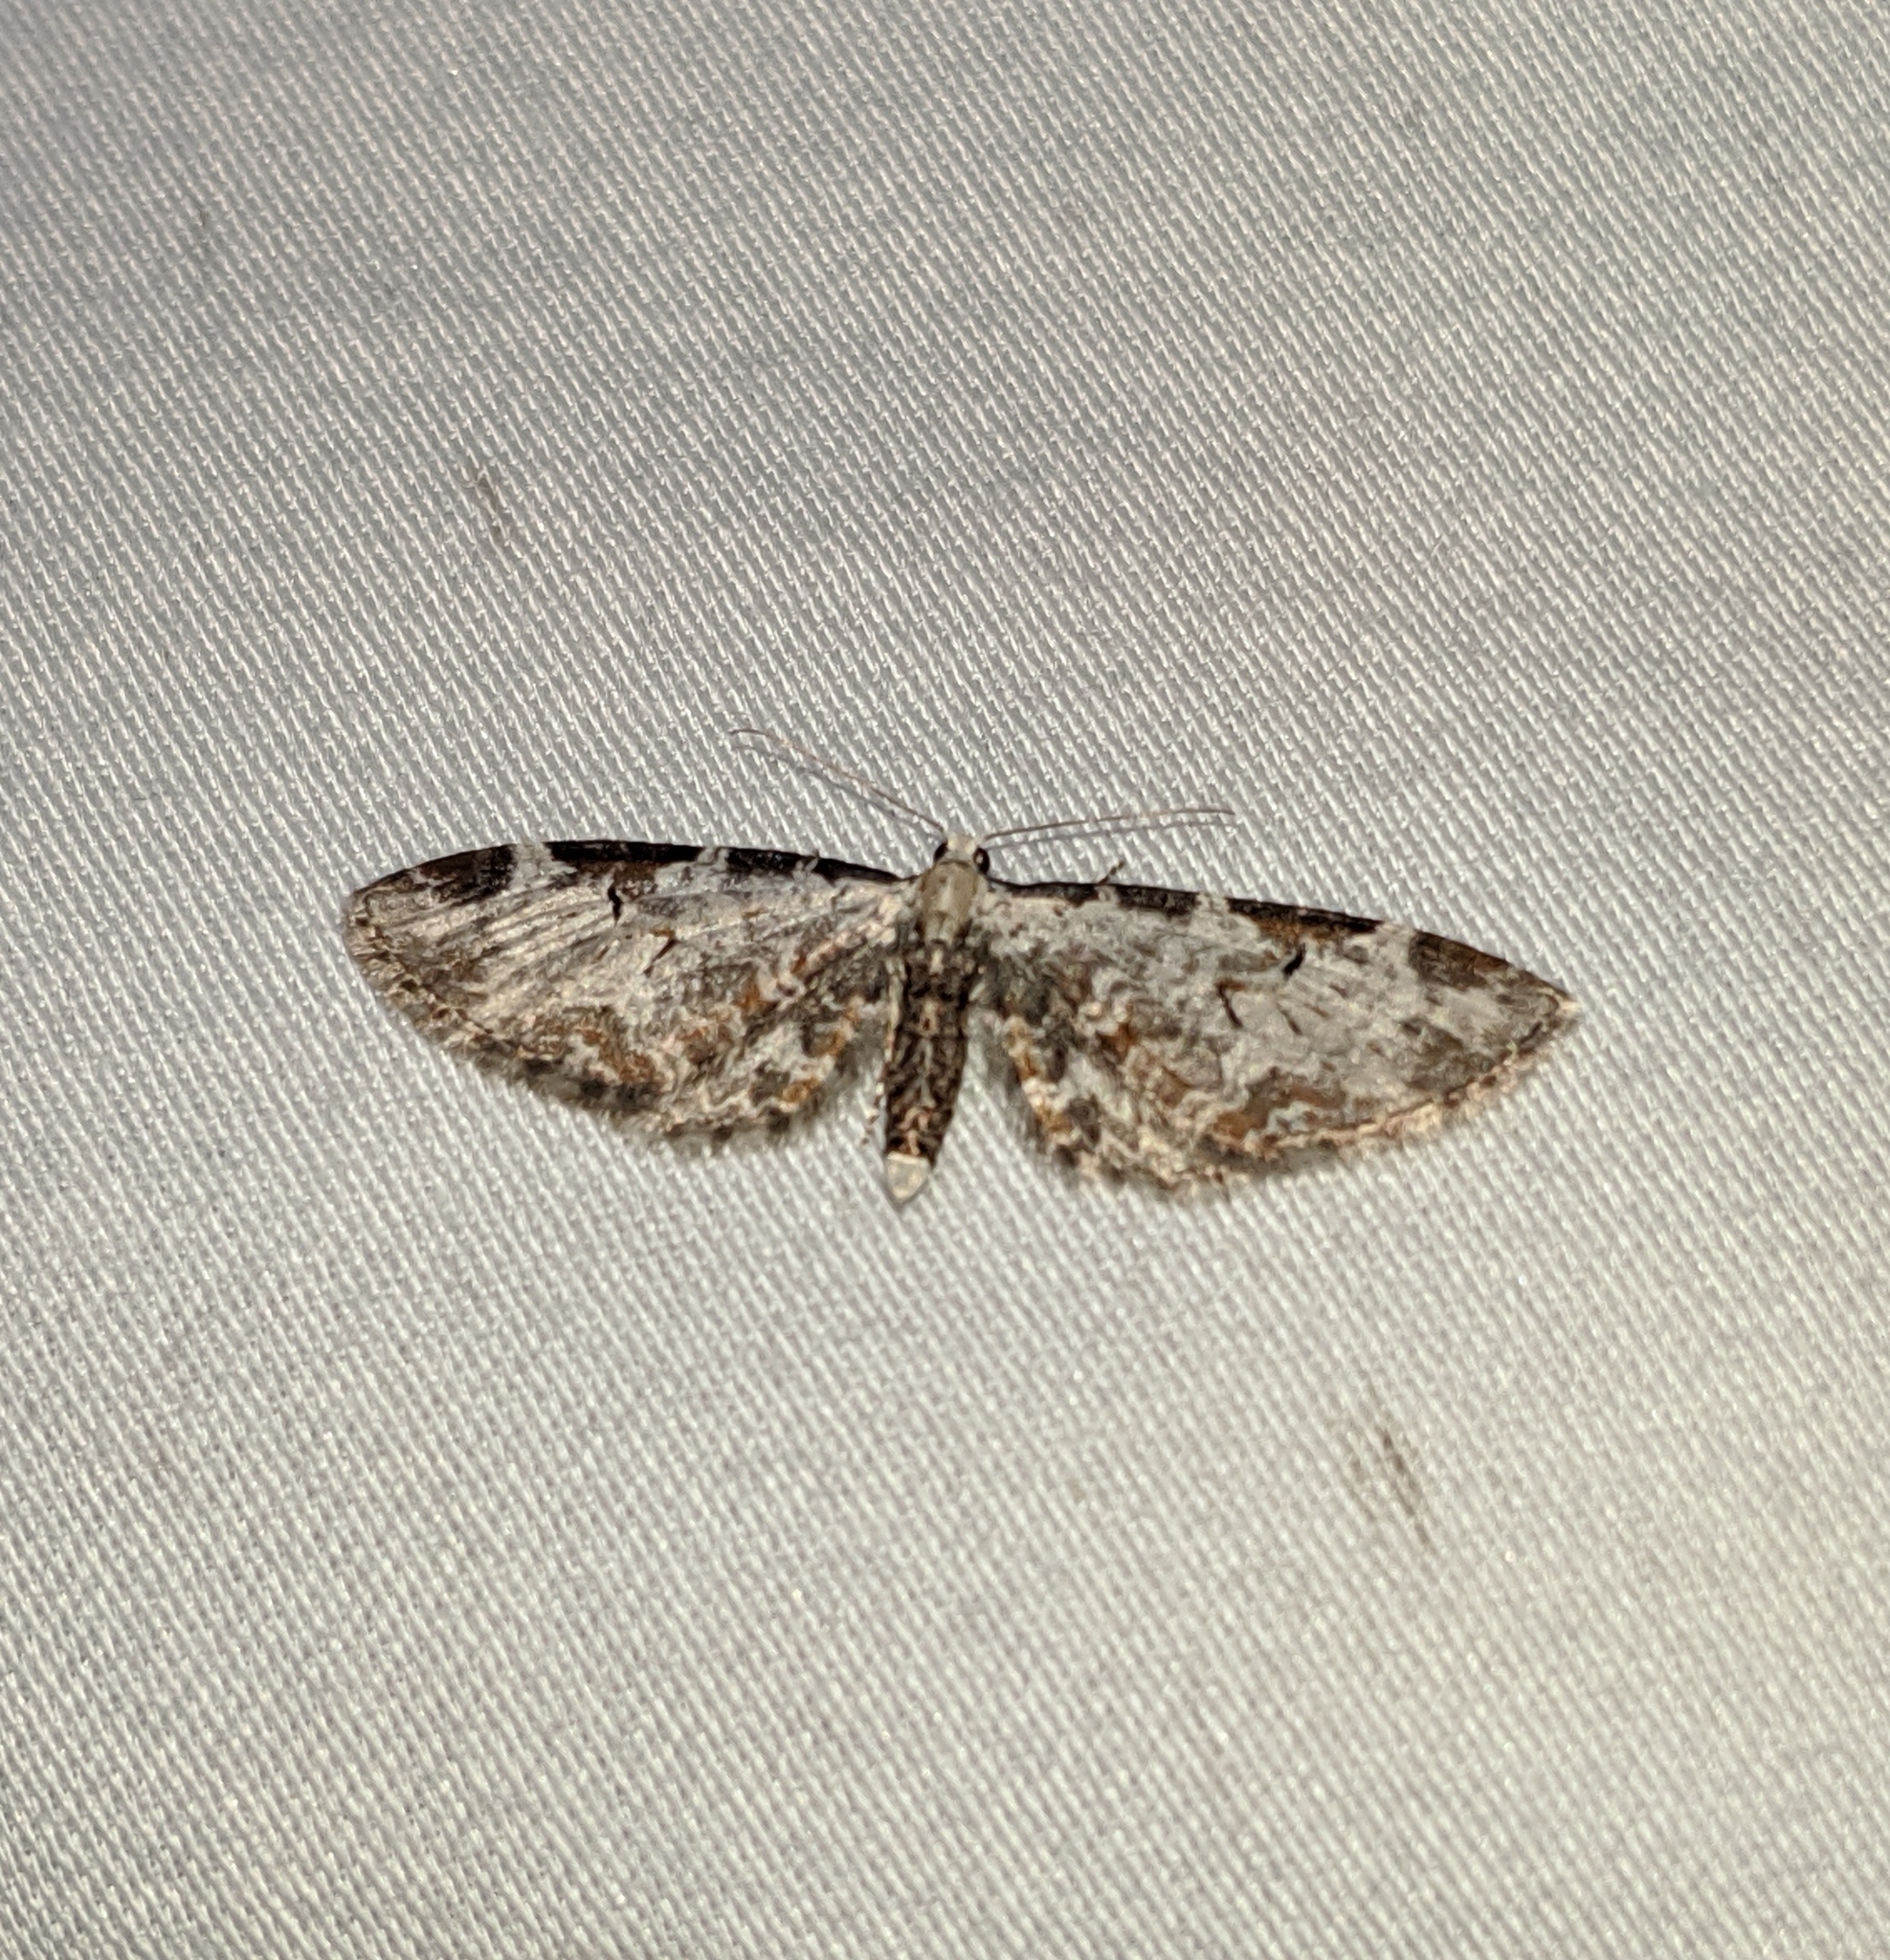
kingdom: Animalia
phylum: Arthropoda
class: Insecta
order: Lepidoptera
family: Geometridae
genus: Eupithecia
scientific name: Eupithecia ravocostaliata
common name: Great varigated pug
